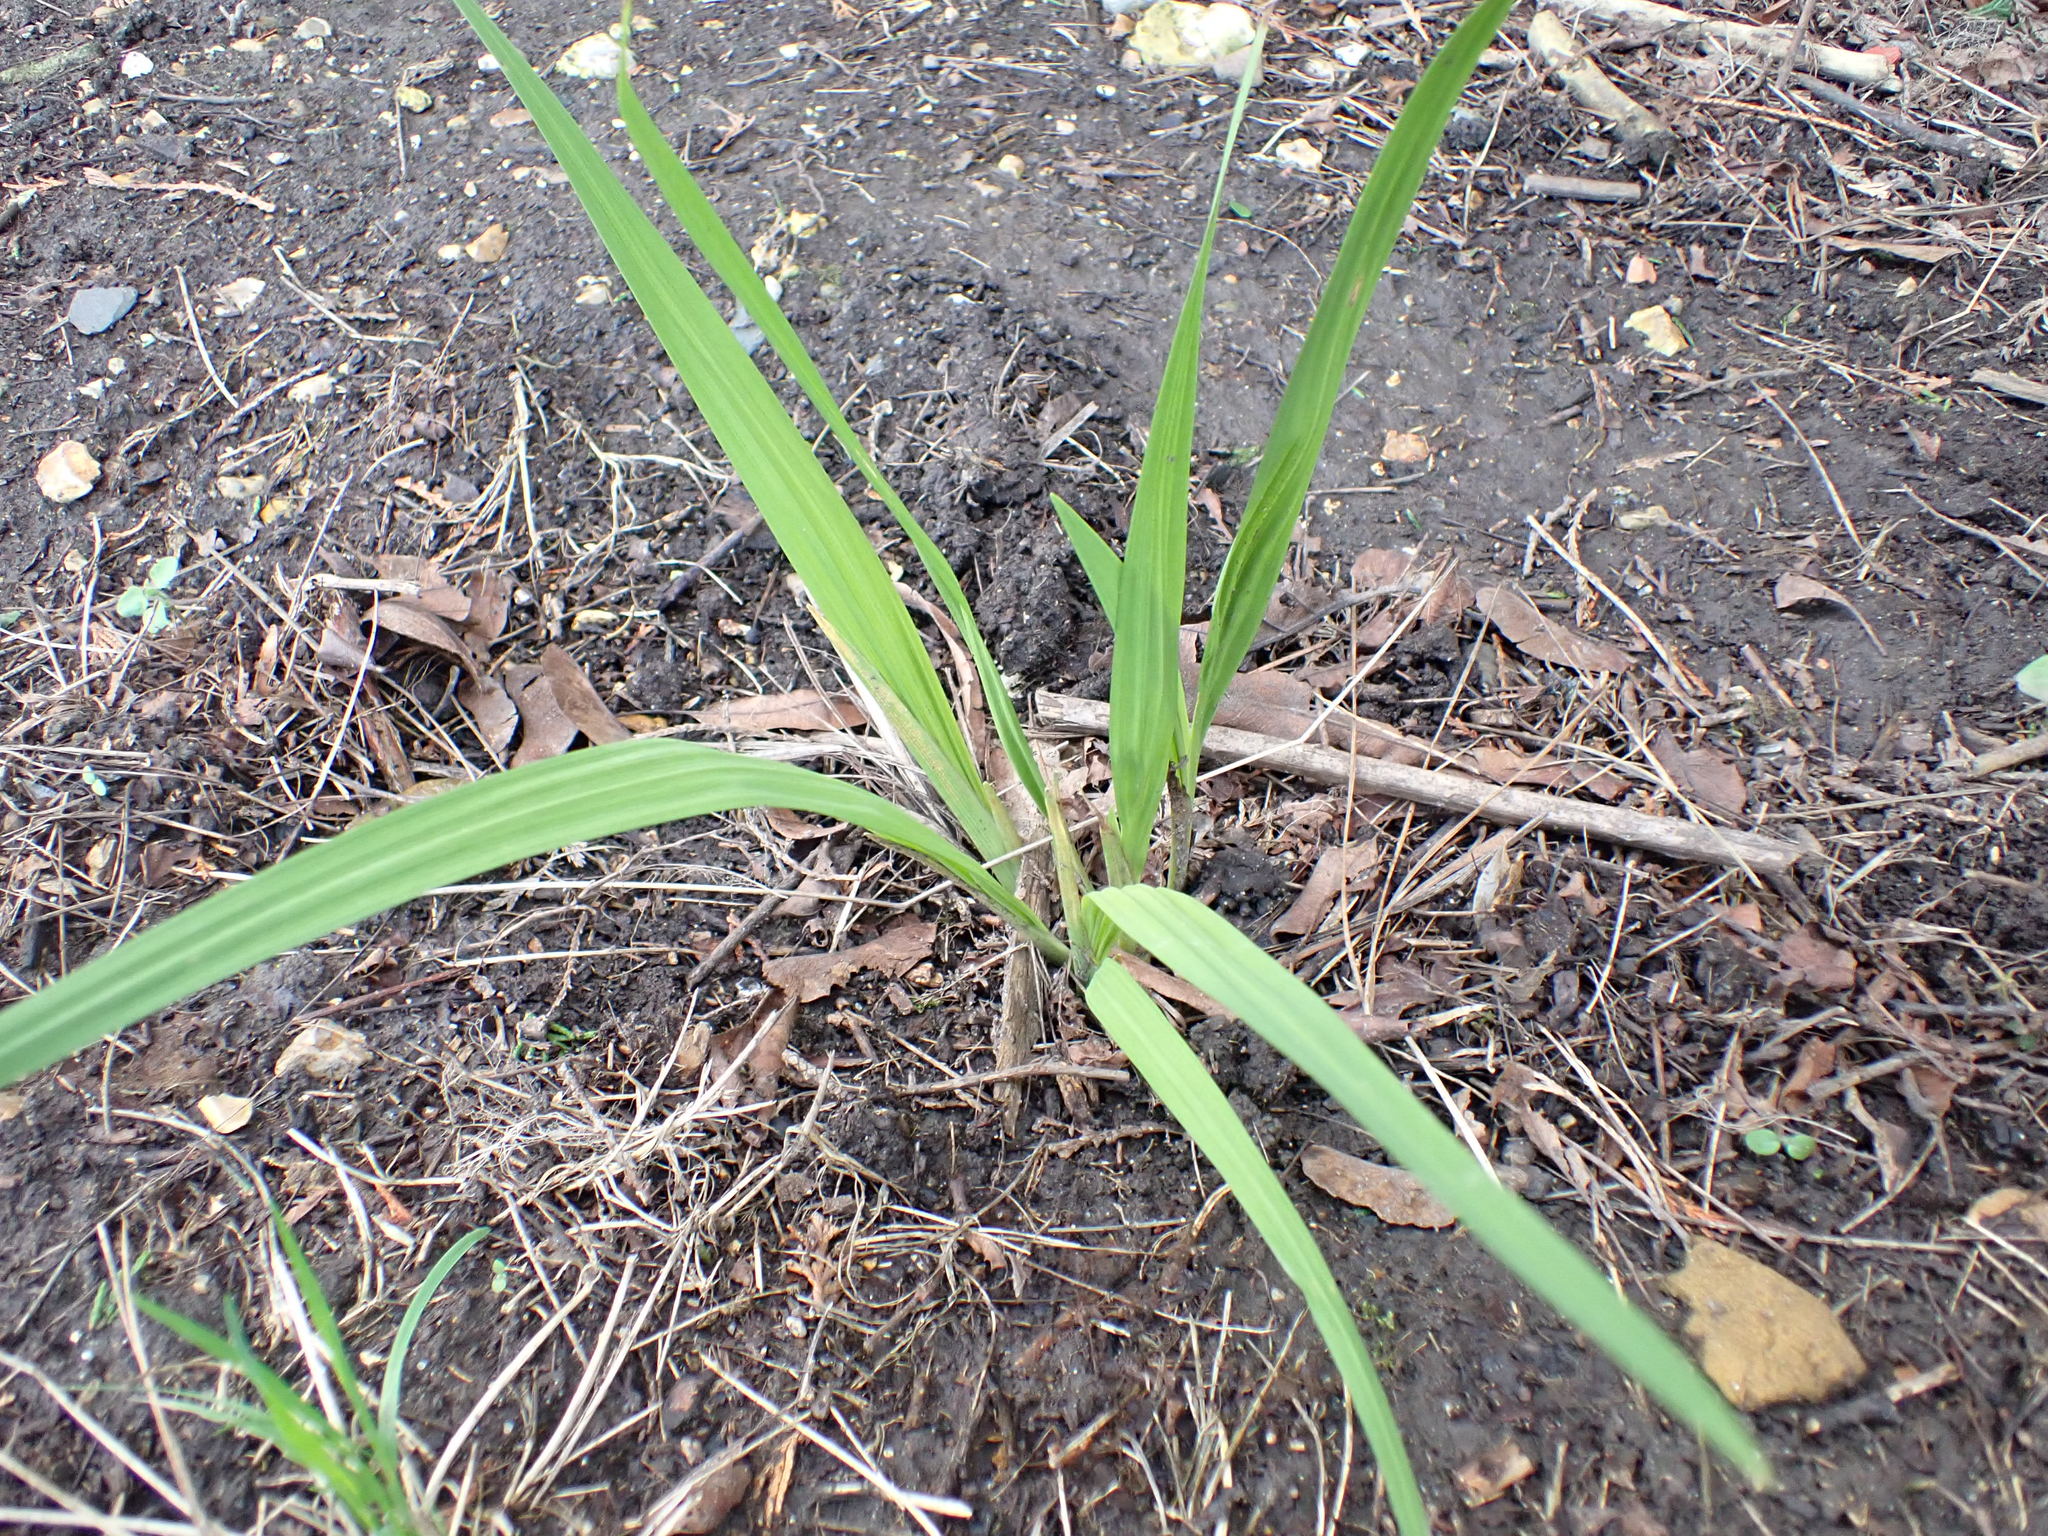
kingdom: Plantae
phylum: Tracheophyta
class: Liliopsida
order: Asparagales
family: Iridaceae
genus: Crocosmia
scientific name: Crocosmia crocosmiiflora
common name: Montbretia
